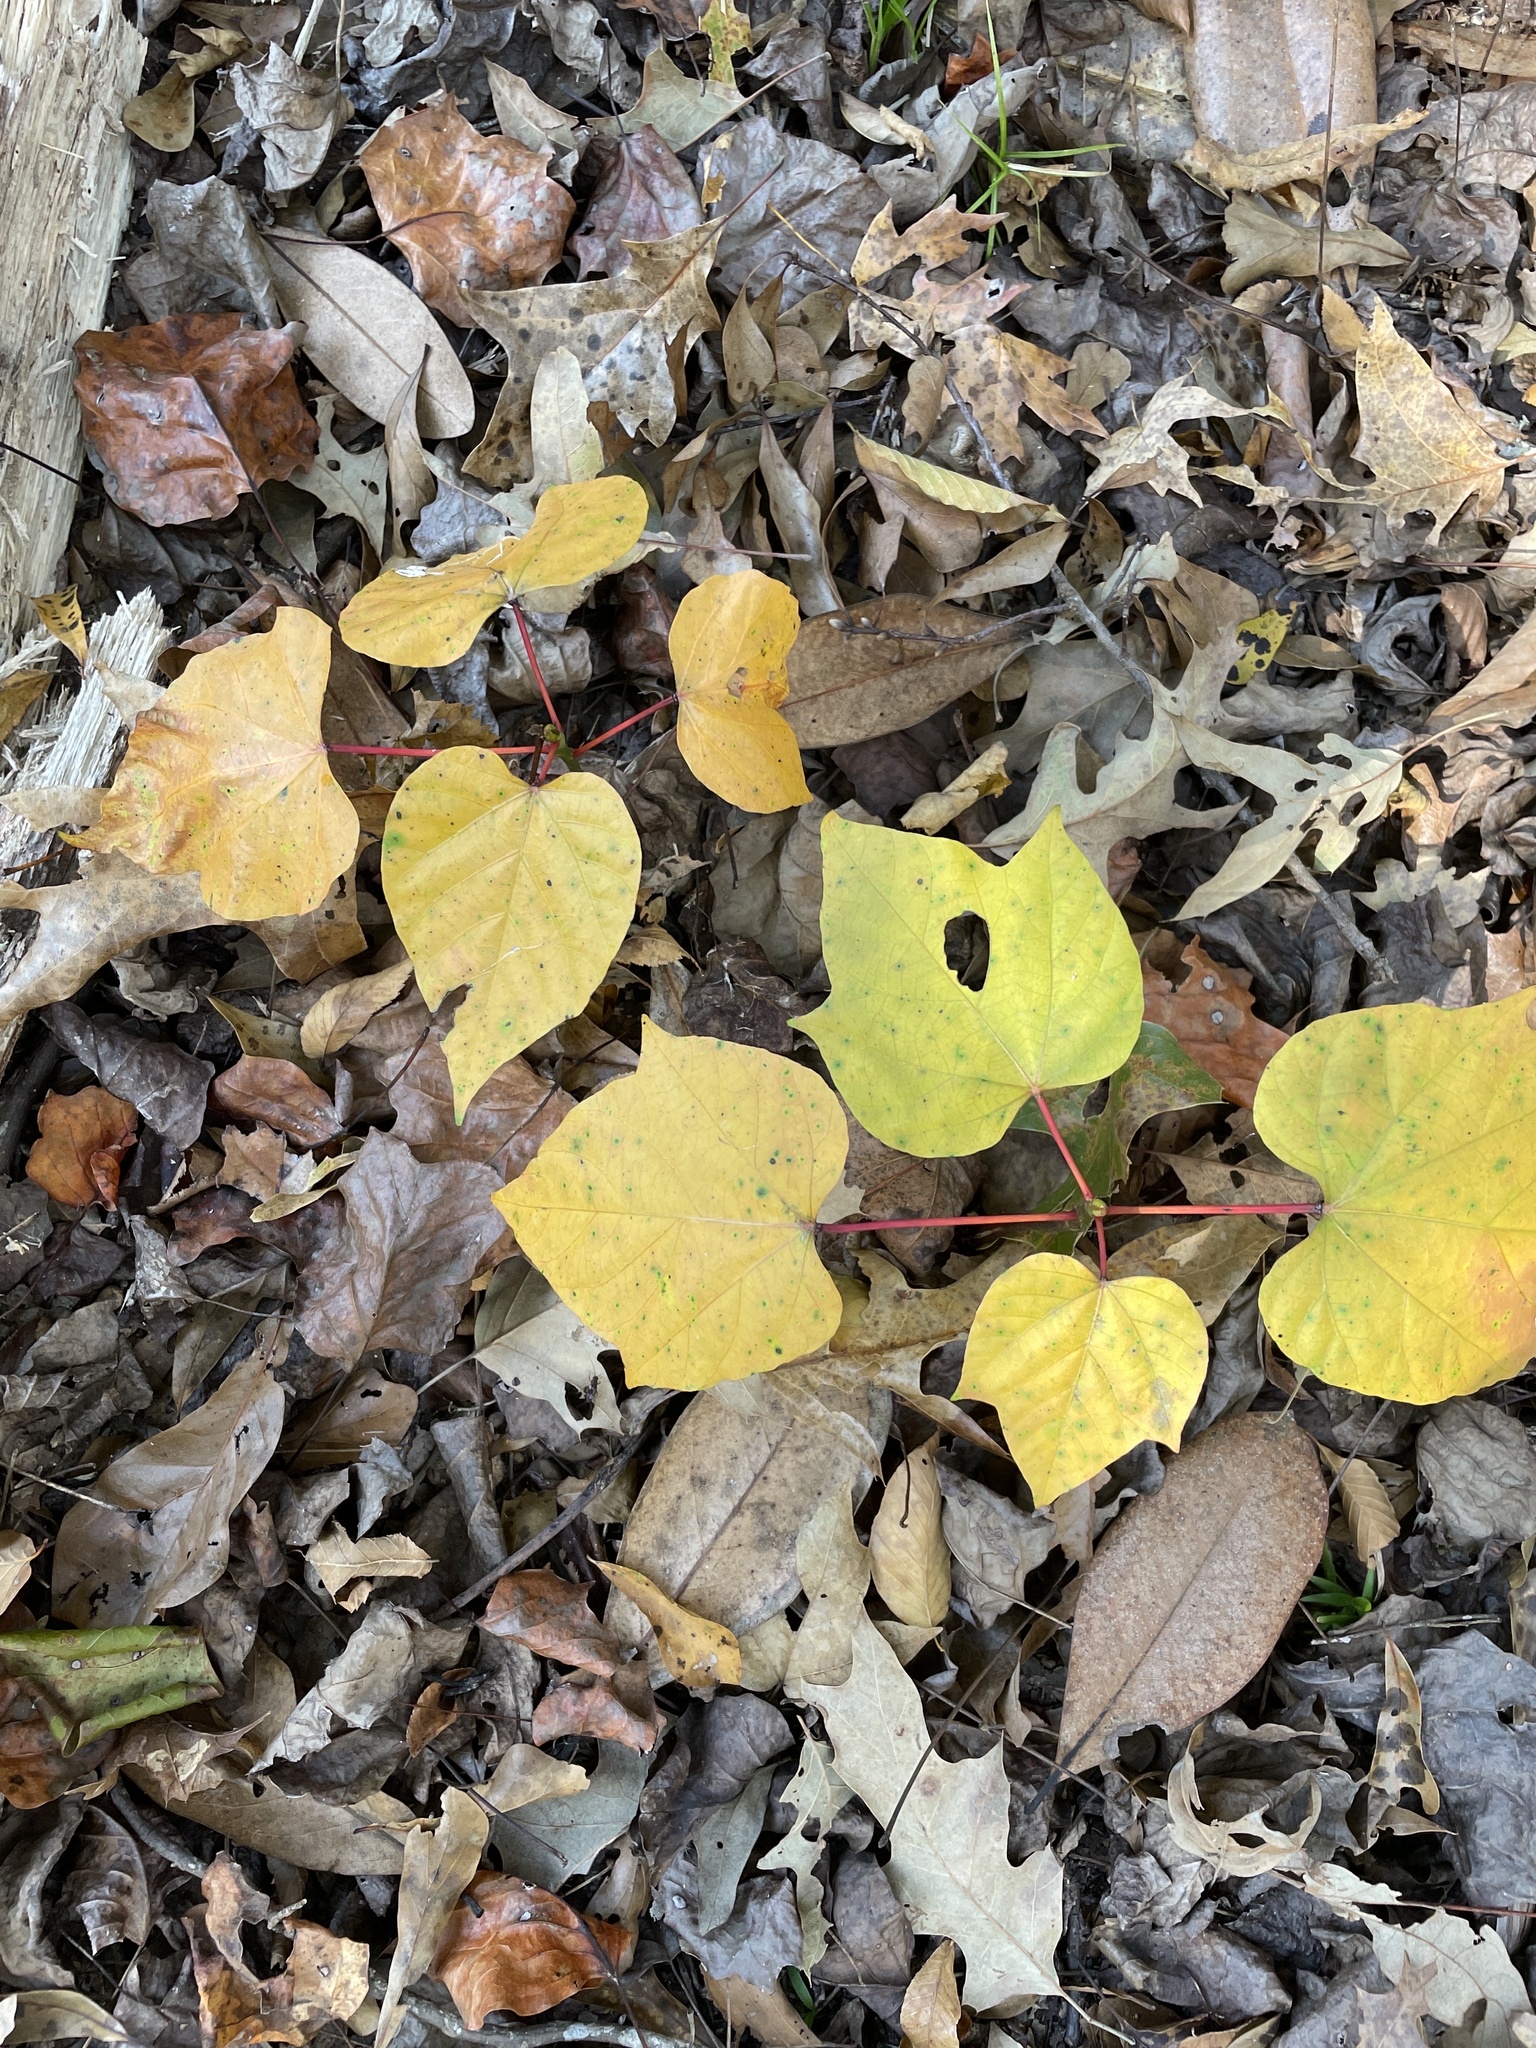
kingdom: Plantae
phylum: Tracheophyta
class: Magnoliopsida
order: Malvales
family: Malvaceae
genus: Firmiana
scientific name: Firmiana simplex
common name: Chinese parasoltree
